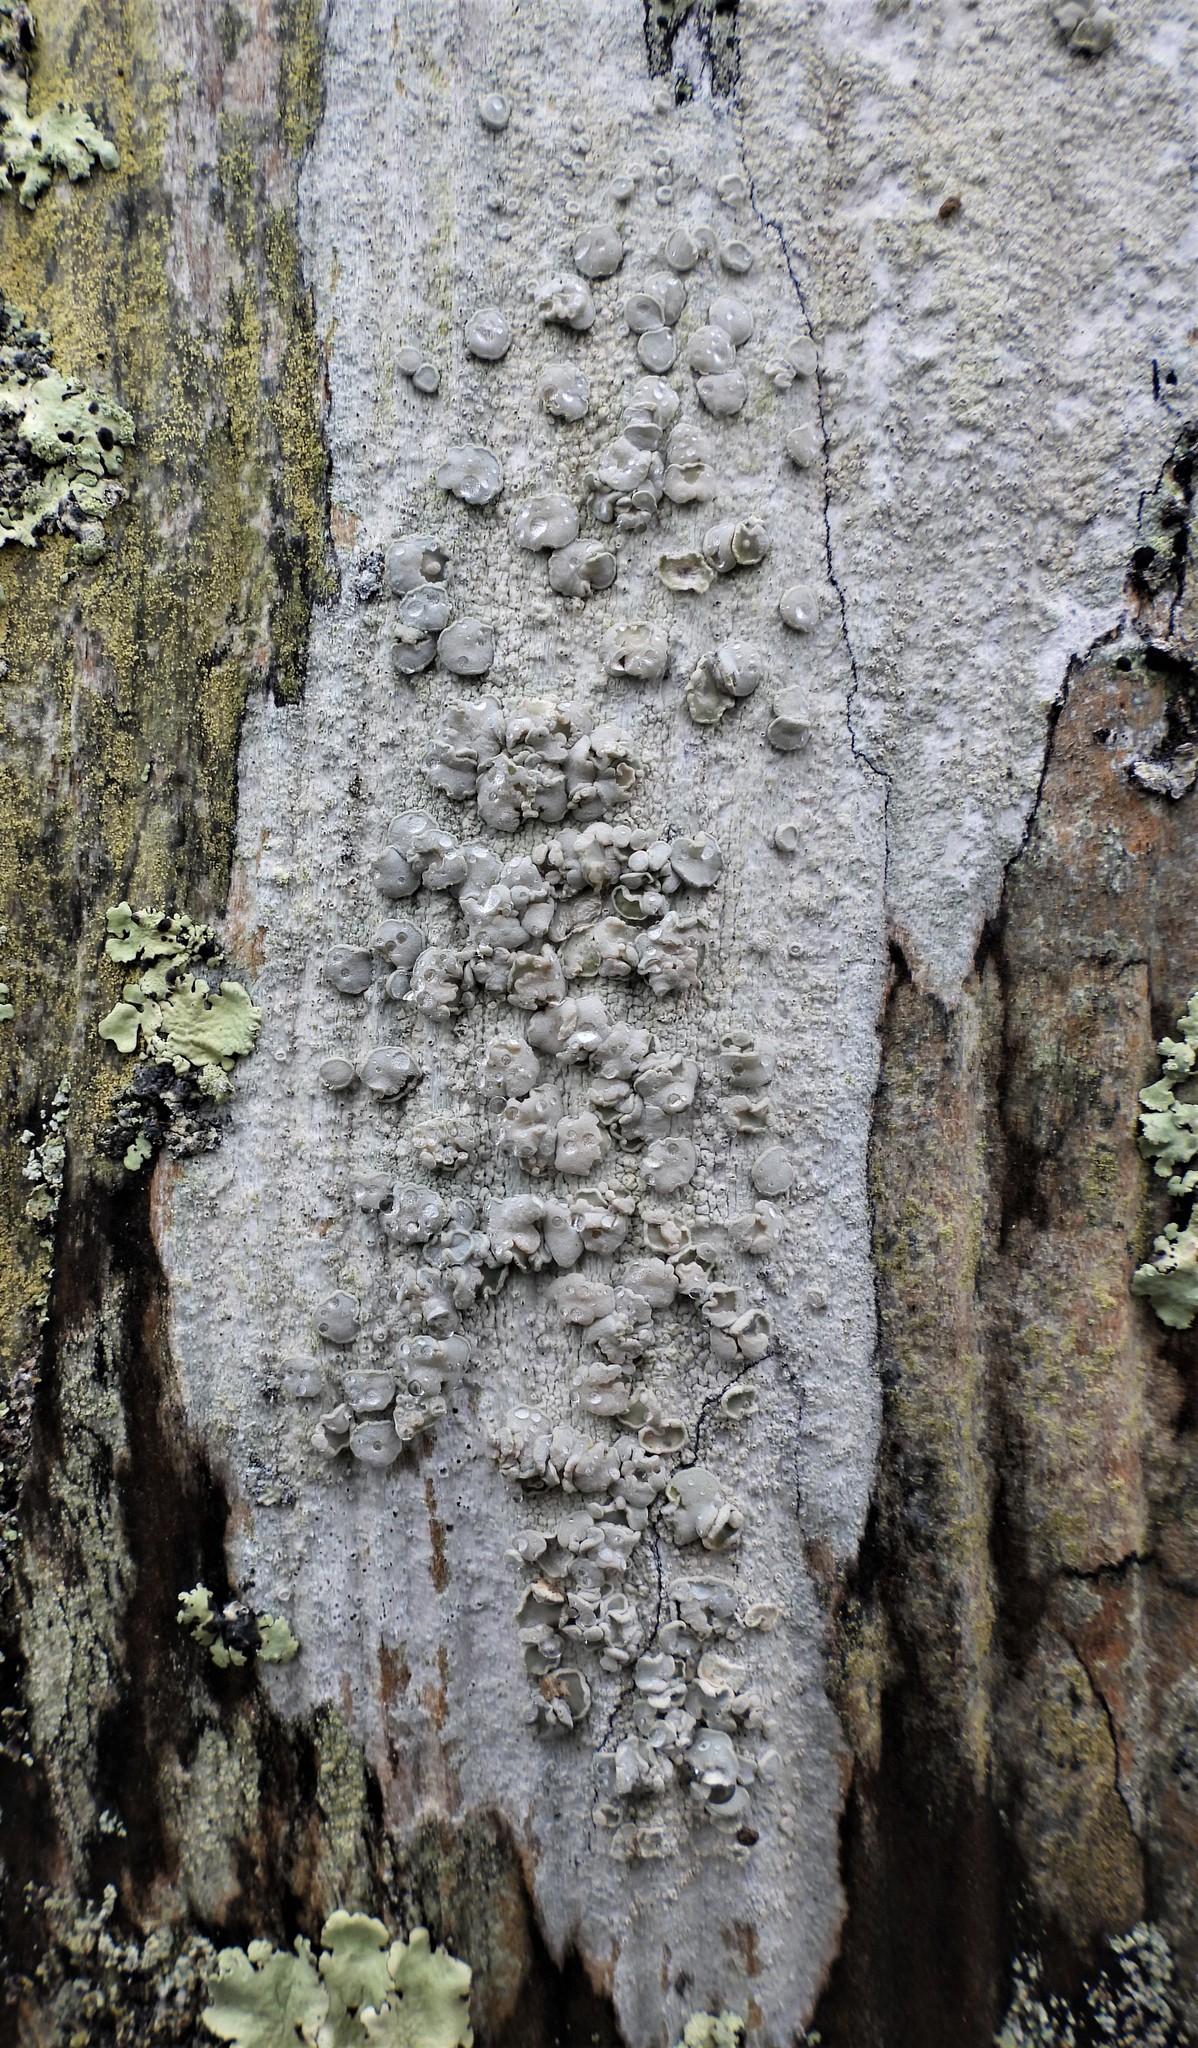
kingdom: Fungi
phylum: Ascomycota
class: Lecanoromycetes
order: Lecanorales
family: Lecanoraceae
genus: Lecanora
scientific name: Lecanora caesiorubella
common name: Frosted rim-lichen
